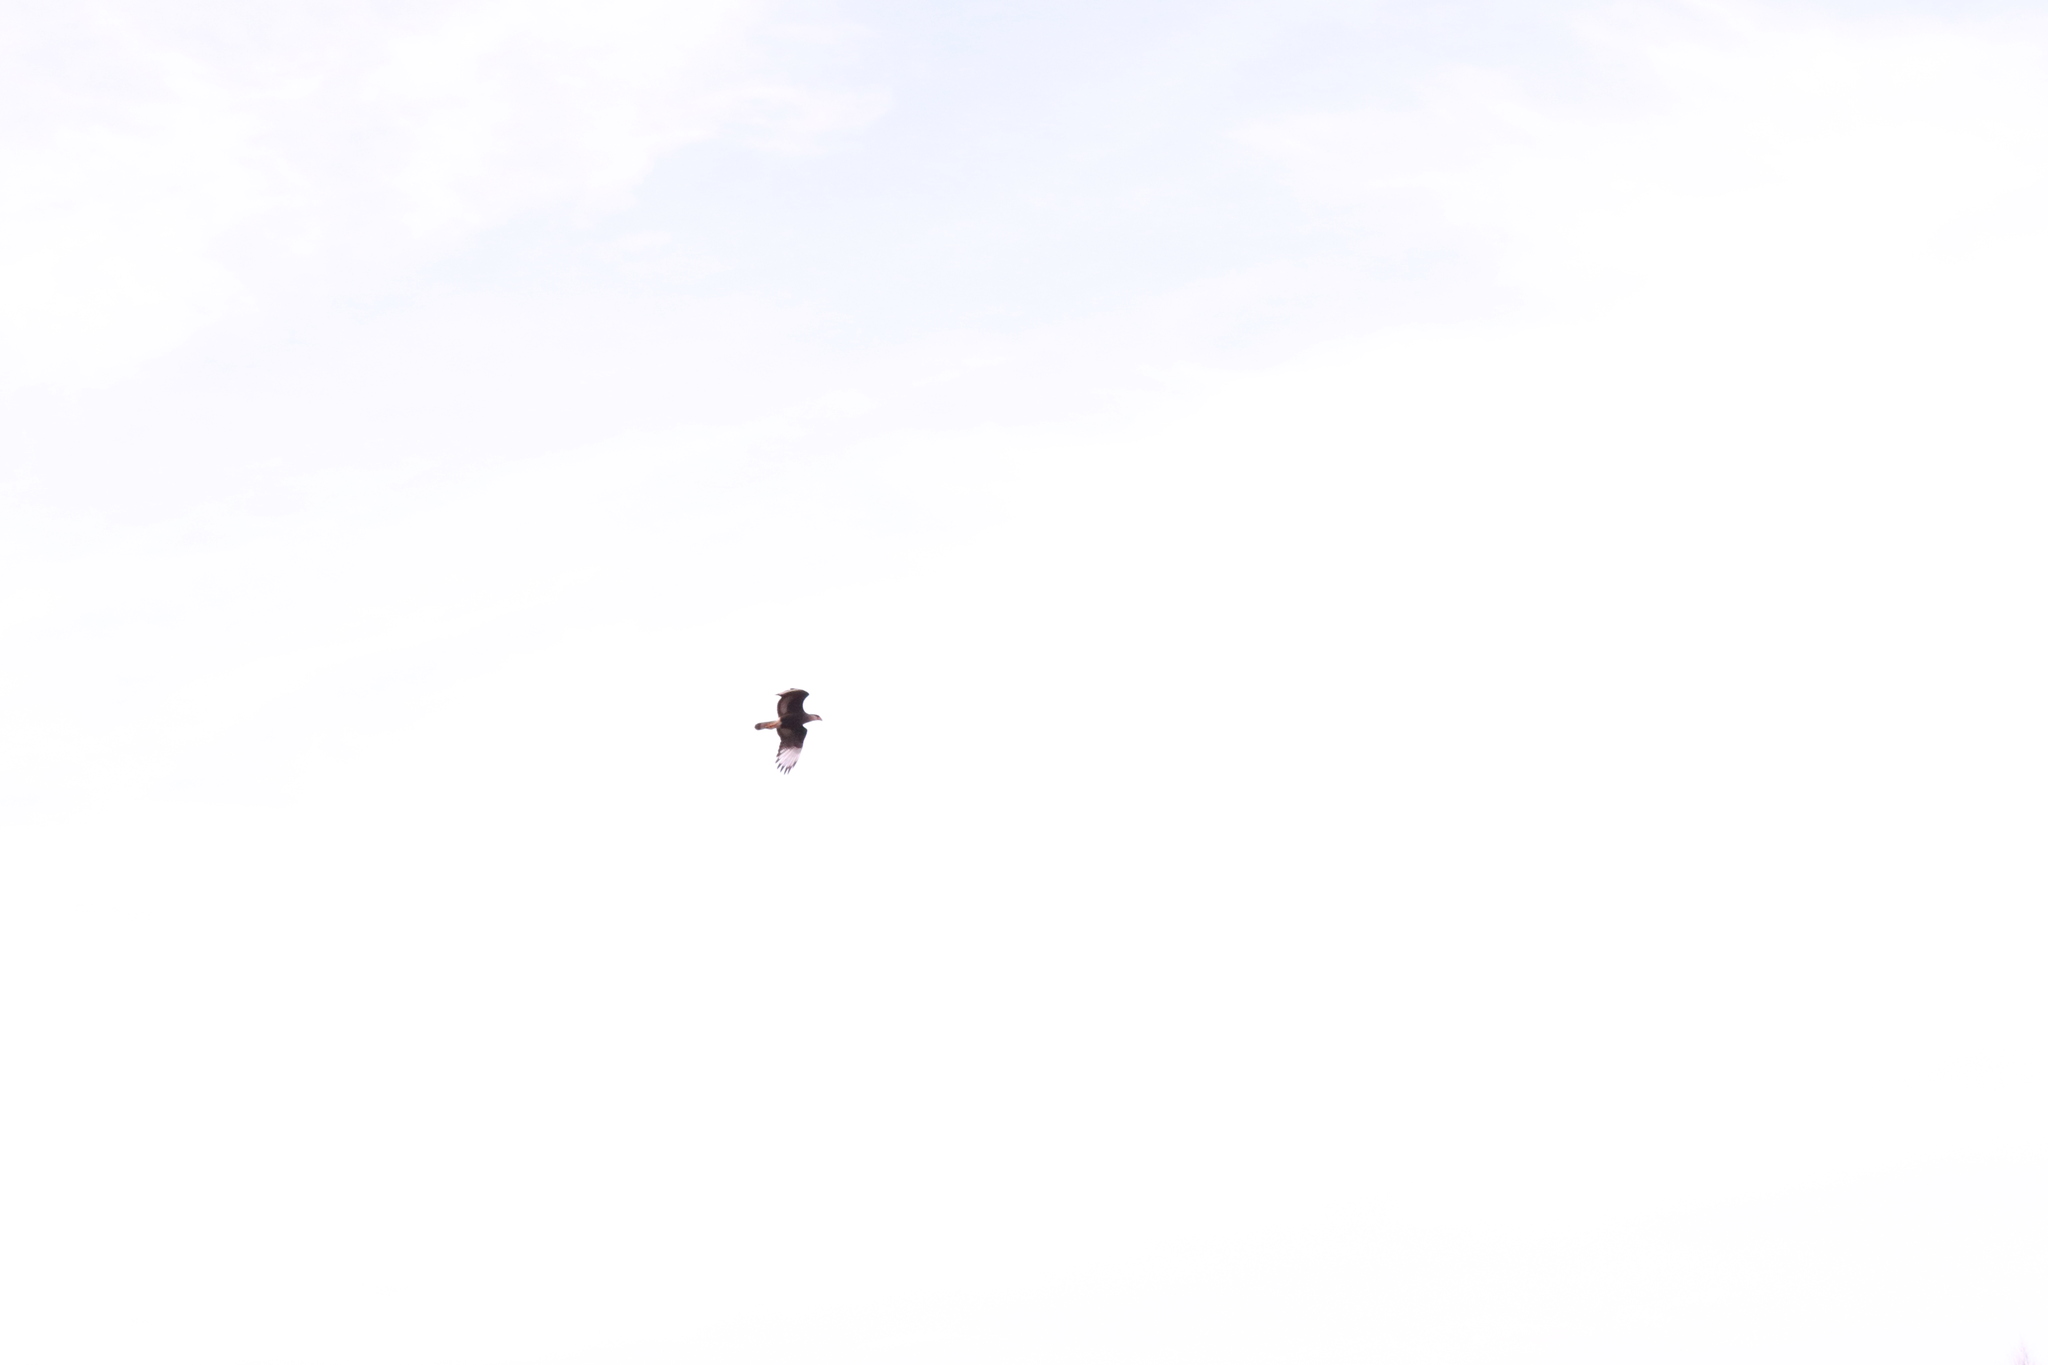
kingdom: Animalia
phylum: Chordata
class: Aves
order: Falconiformes
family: Falconidae
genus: Caracara
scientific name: Caracara plancus
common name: Southern caracara
